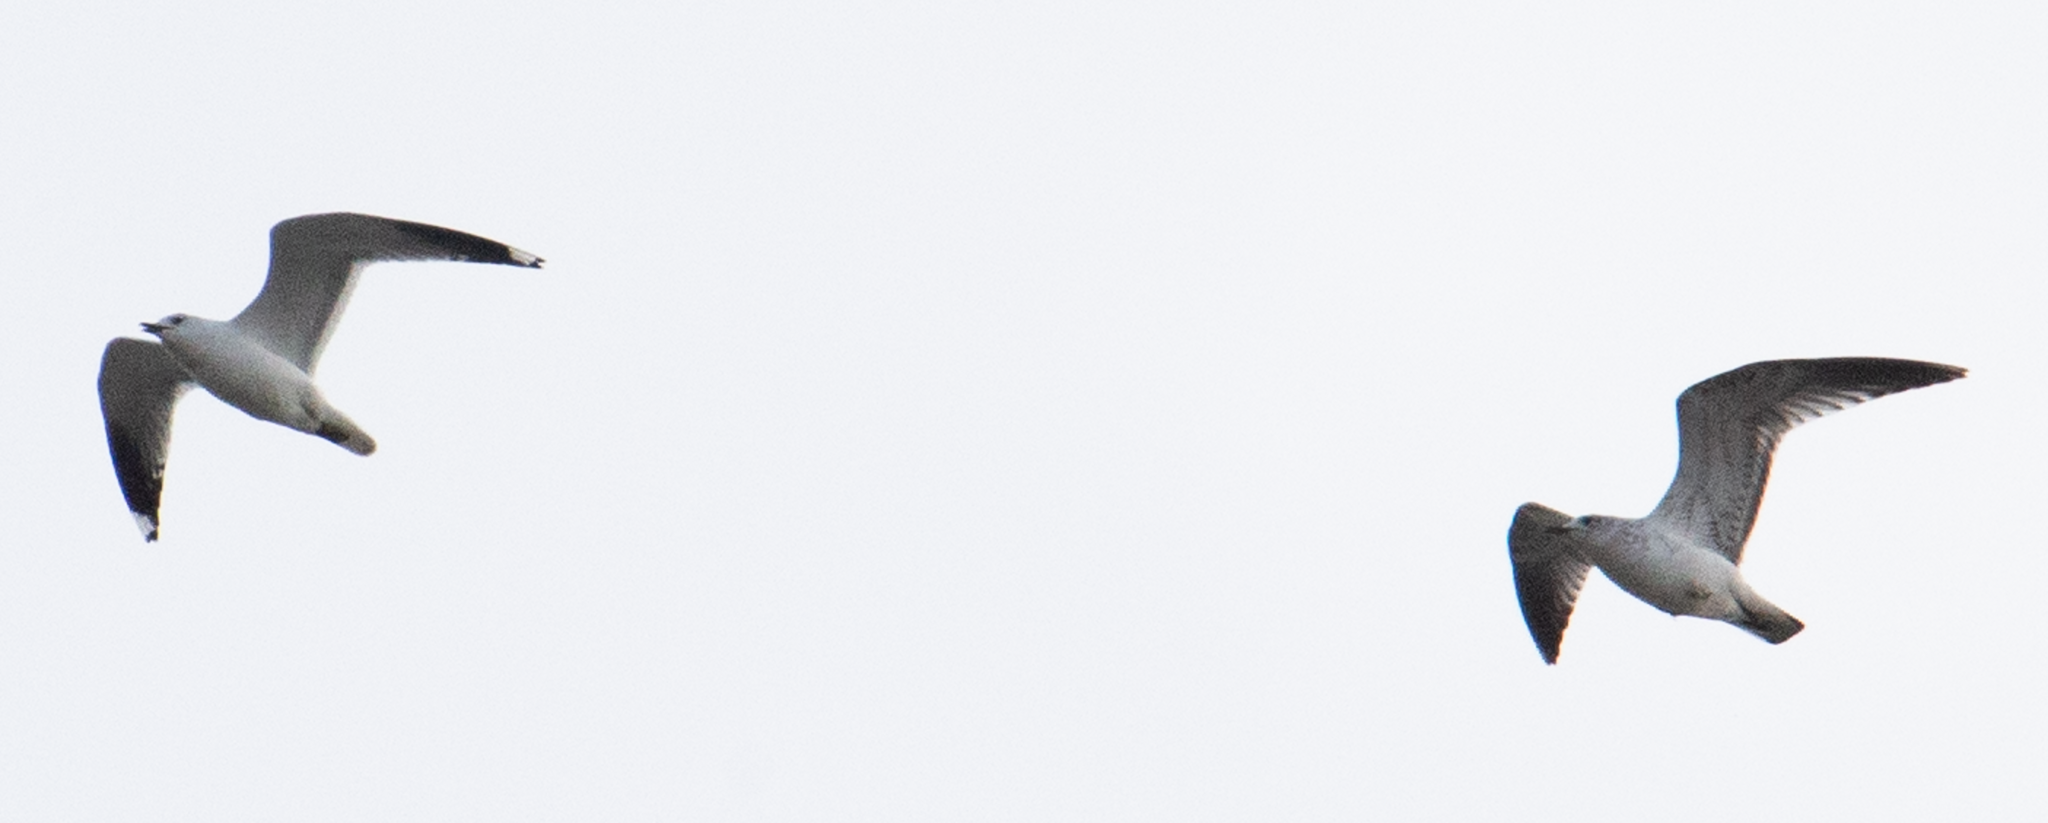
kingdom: Animalia
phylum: Chordata
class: Aves
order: Charadriiformes
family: Laridae
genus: Larus
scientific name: Larus canus
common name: Mew gull
